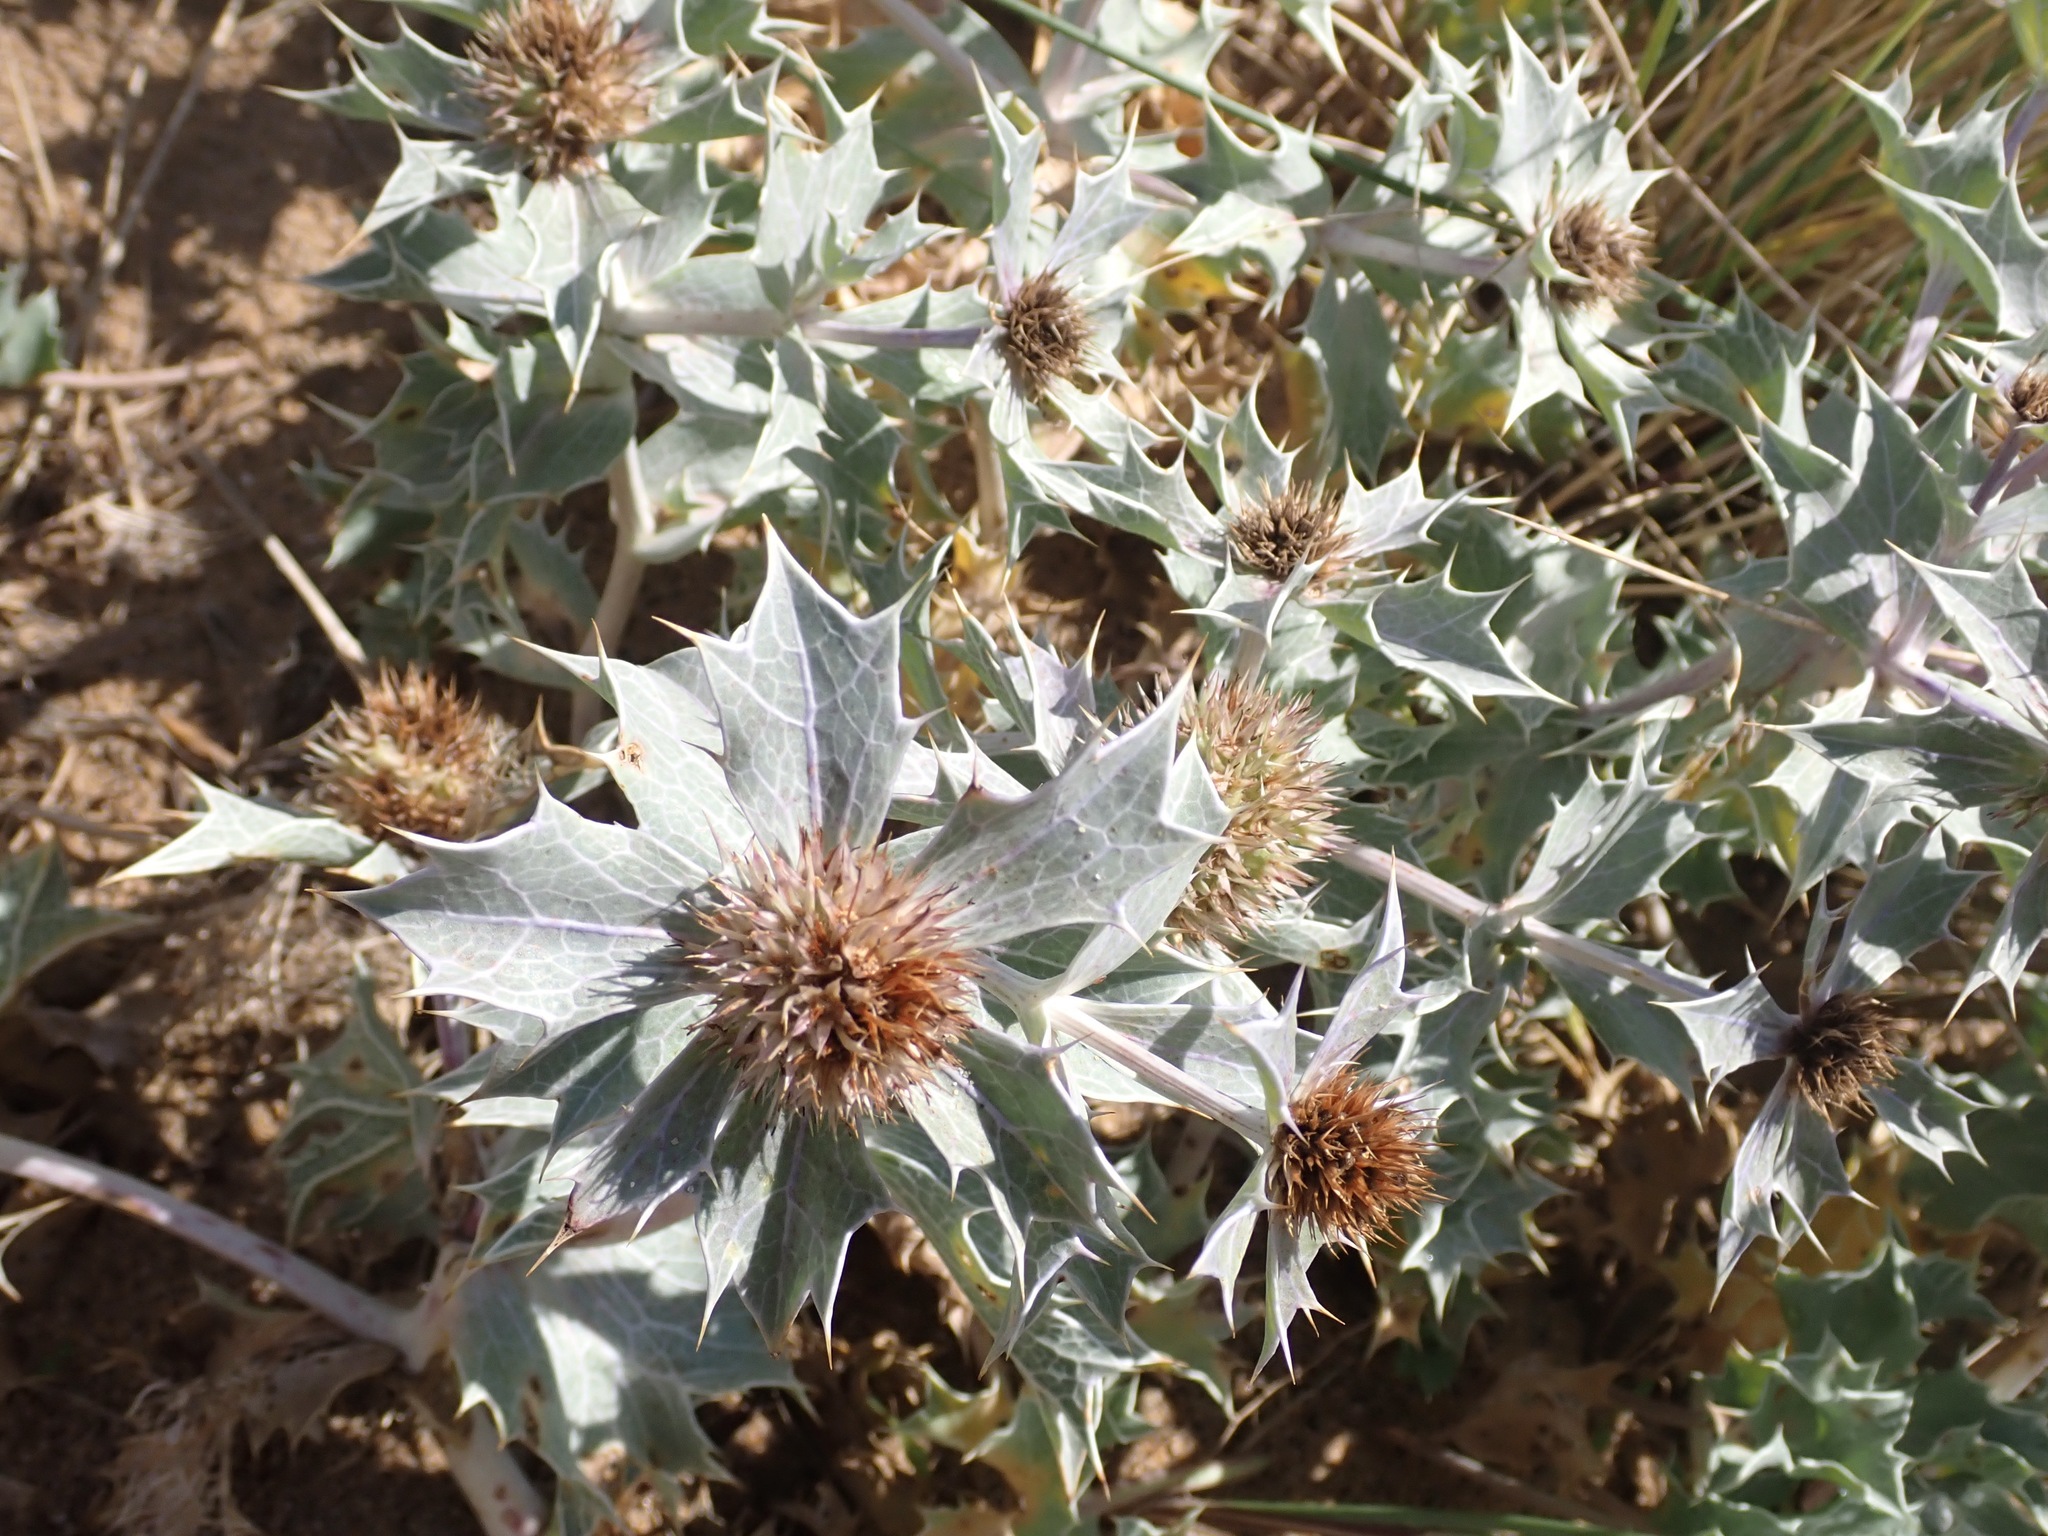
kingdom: Plantae
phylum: Tracheophyta
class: Magnoliopsida
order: Apiales
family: Apiaceae
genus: Eryngium
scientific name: Eryngium maritimum
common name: Sea-holly
